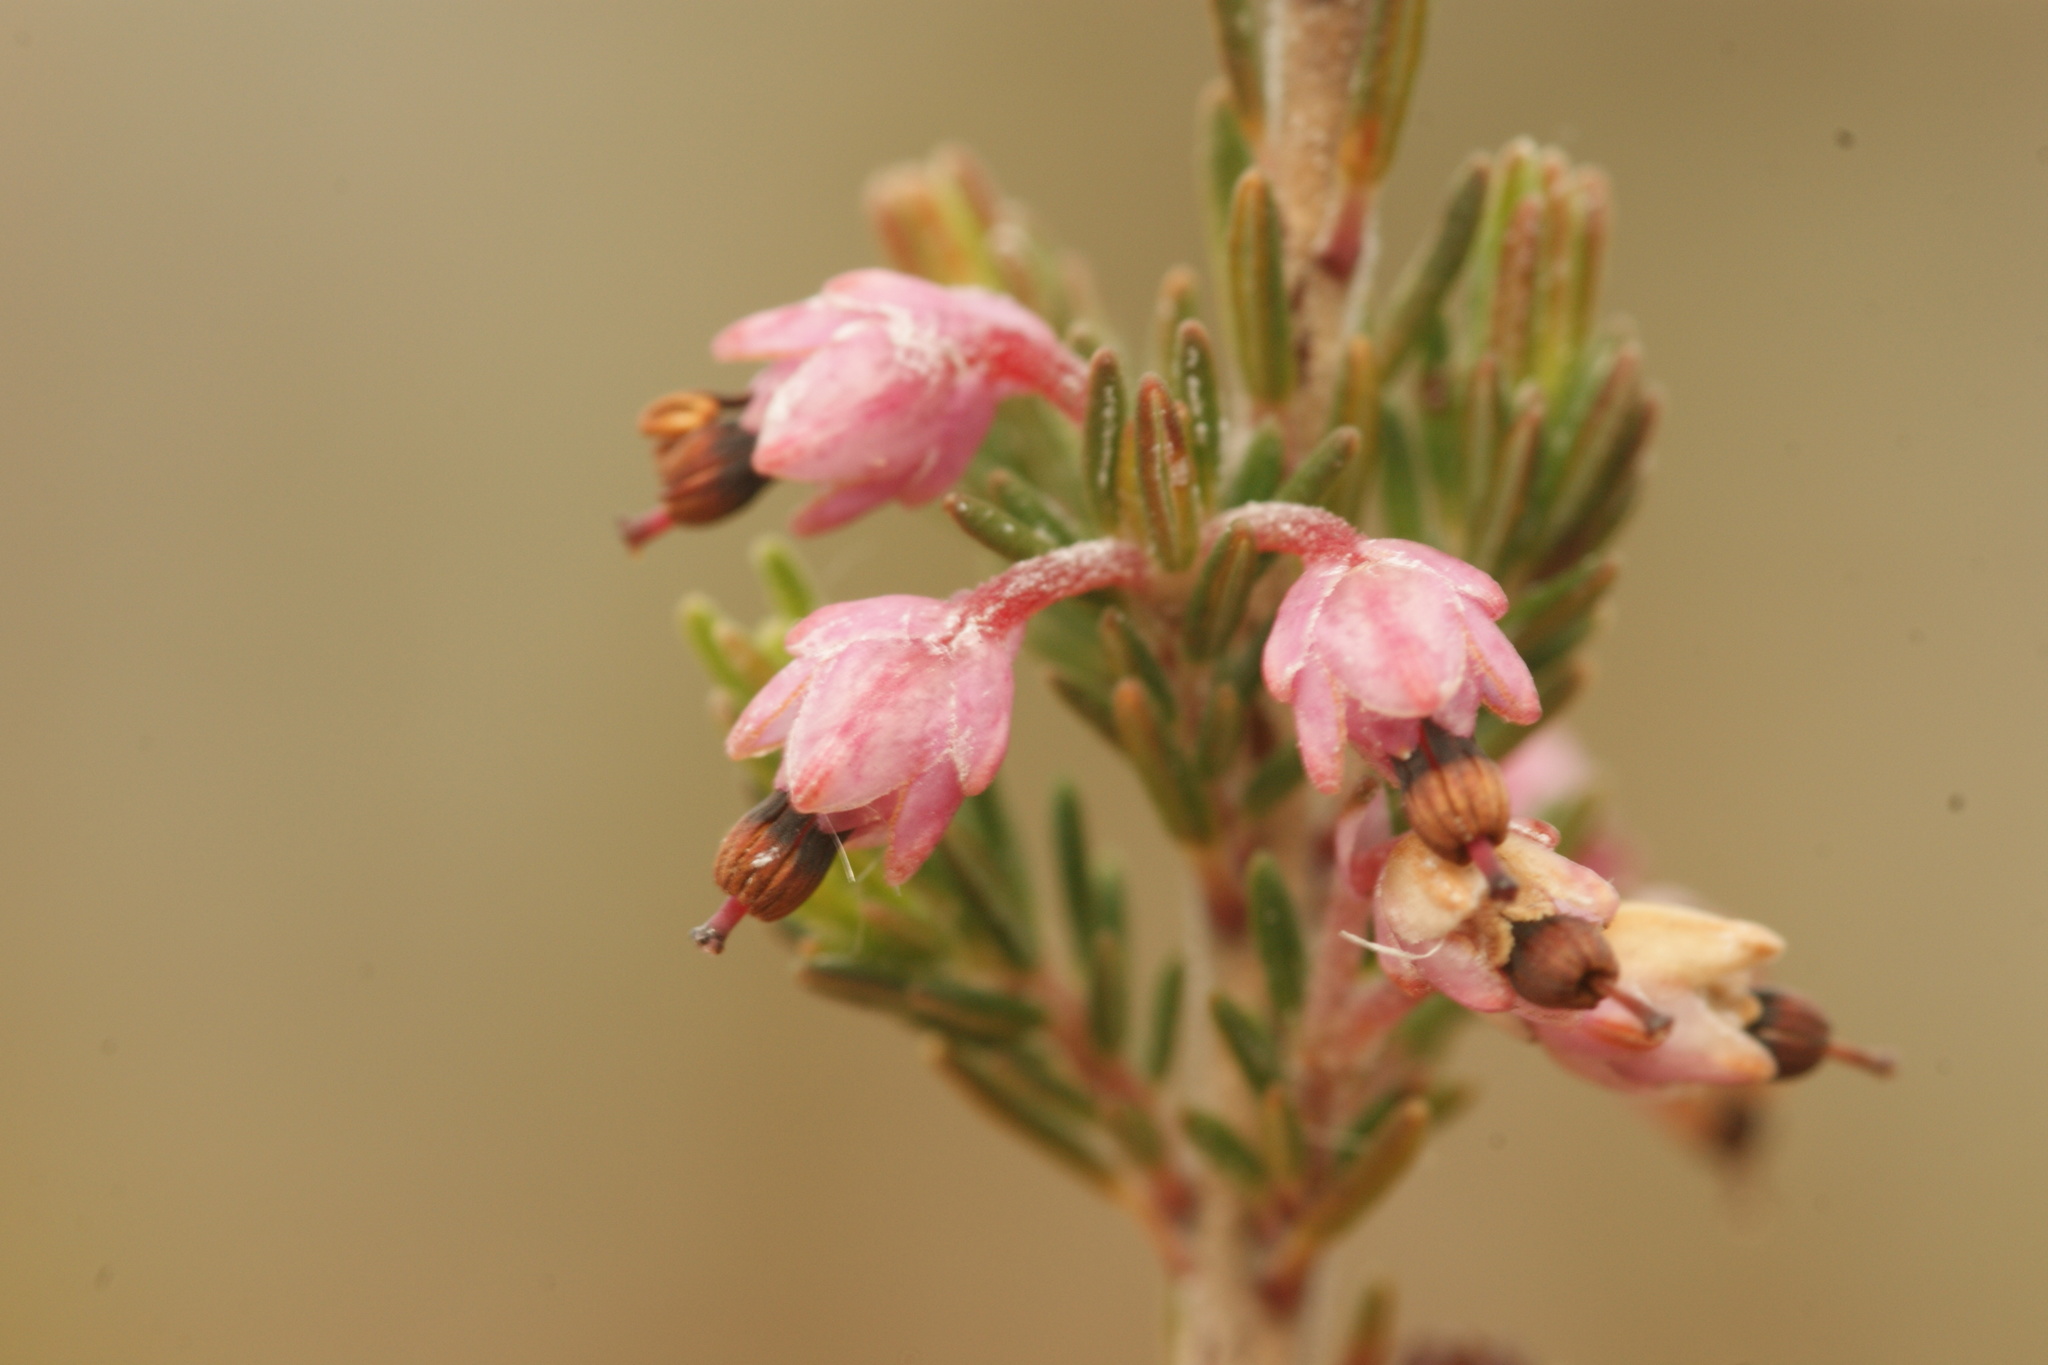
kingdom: Plantae
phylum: Tracheophyta
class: Magnoliopsida
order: Ericales
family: Ericaceae
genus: Erica
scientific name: Erica imbricata
